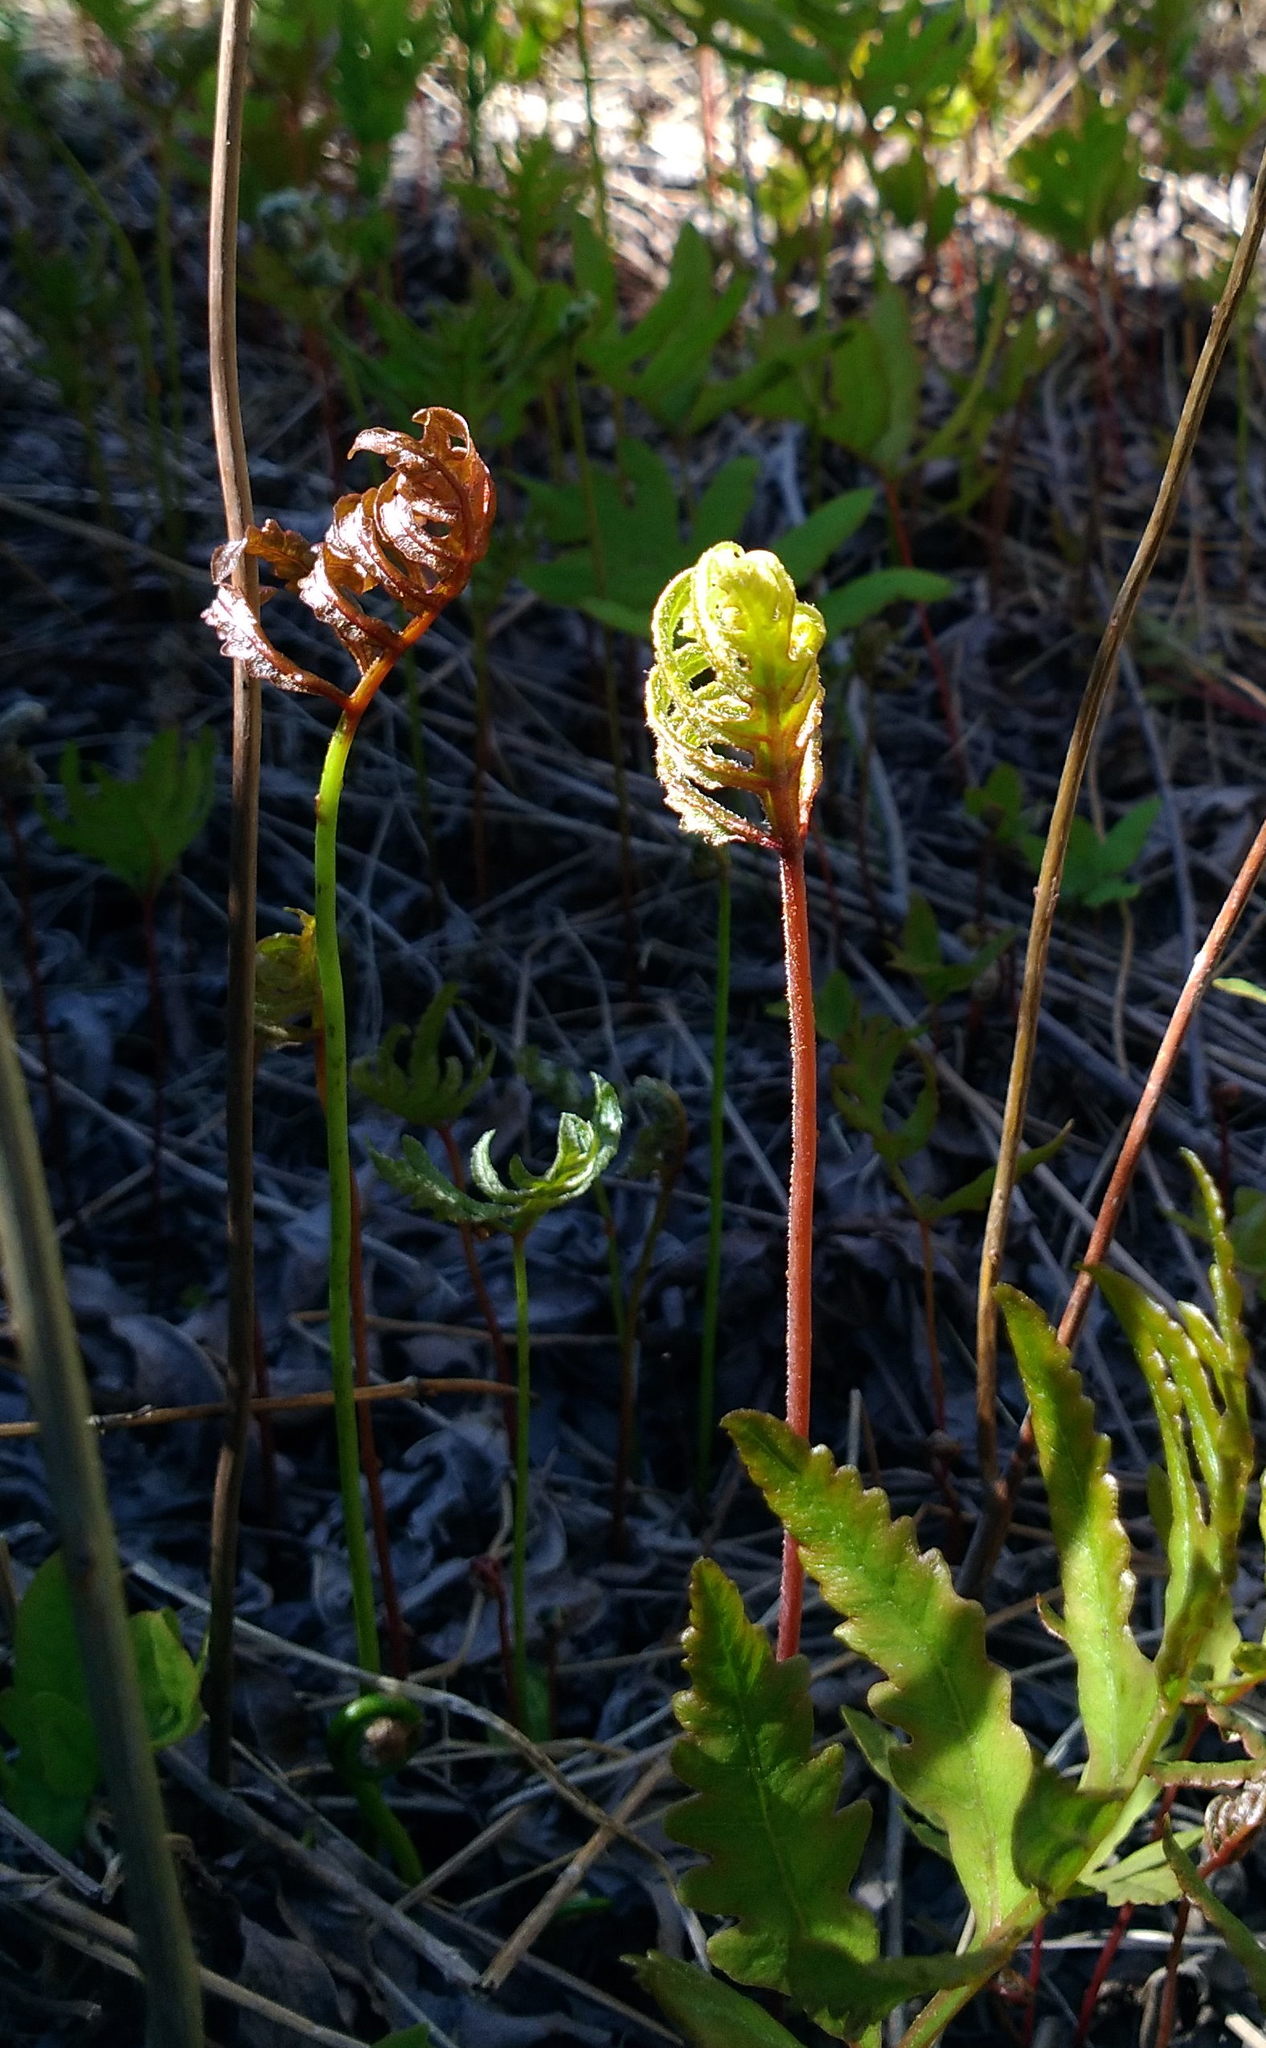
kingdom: Plantae
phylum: Tracheophyta
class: Polypodiopsida
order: Polypodiales
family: Onocleaceae
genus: Onoclea
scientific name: Onoclea sensibilis
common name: Sensitive fern
